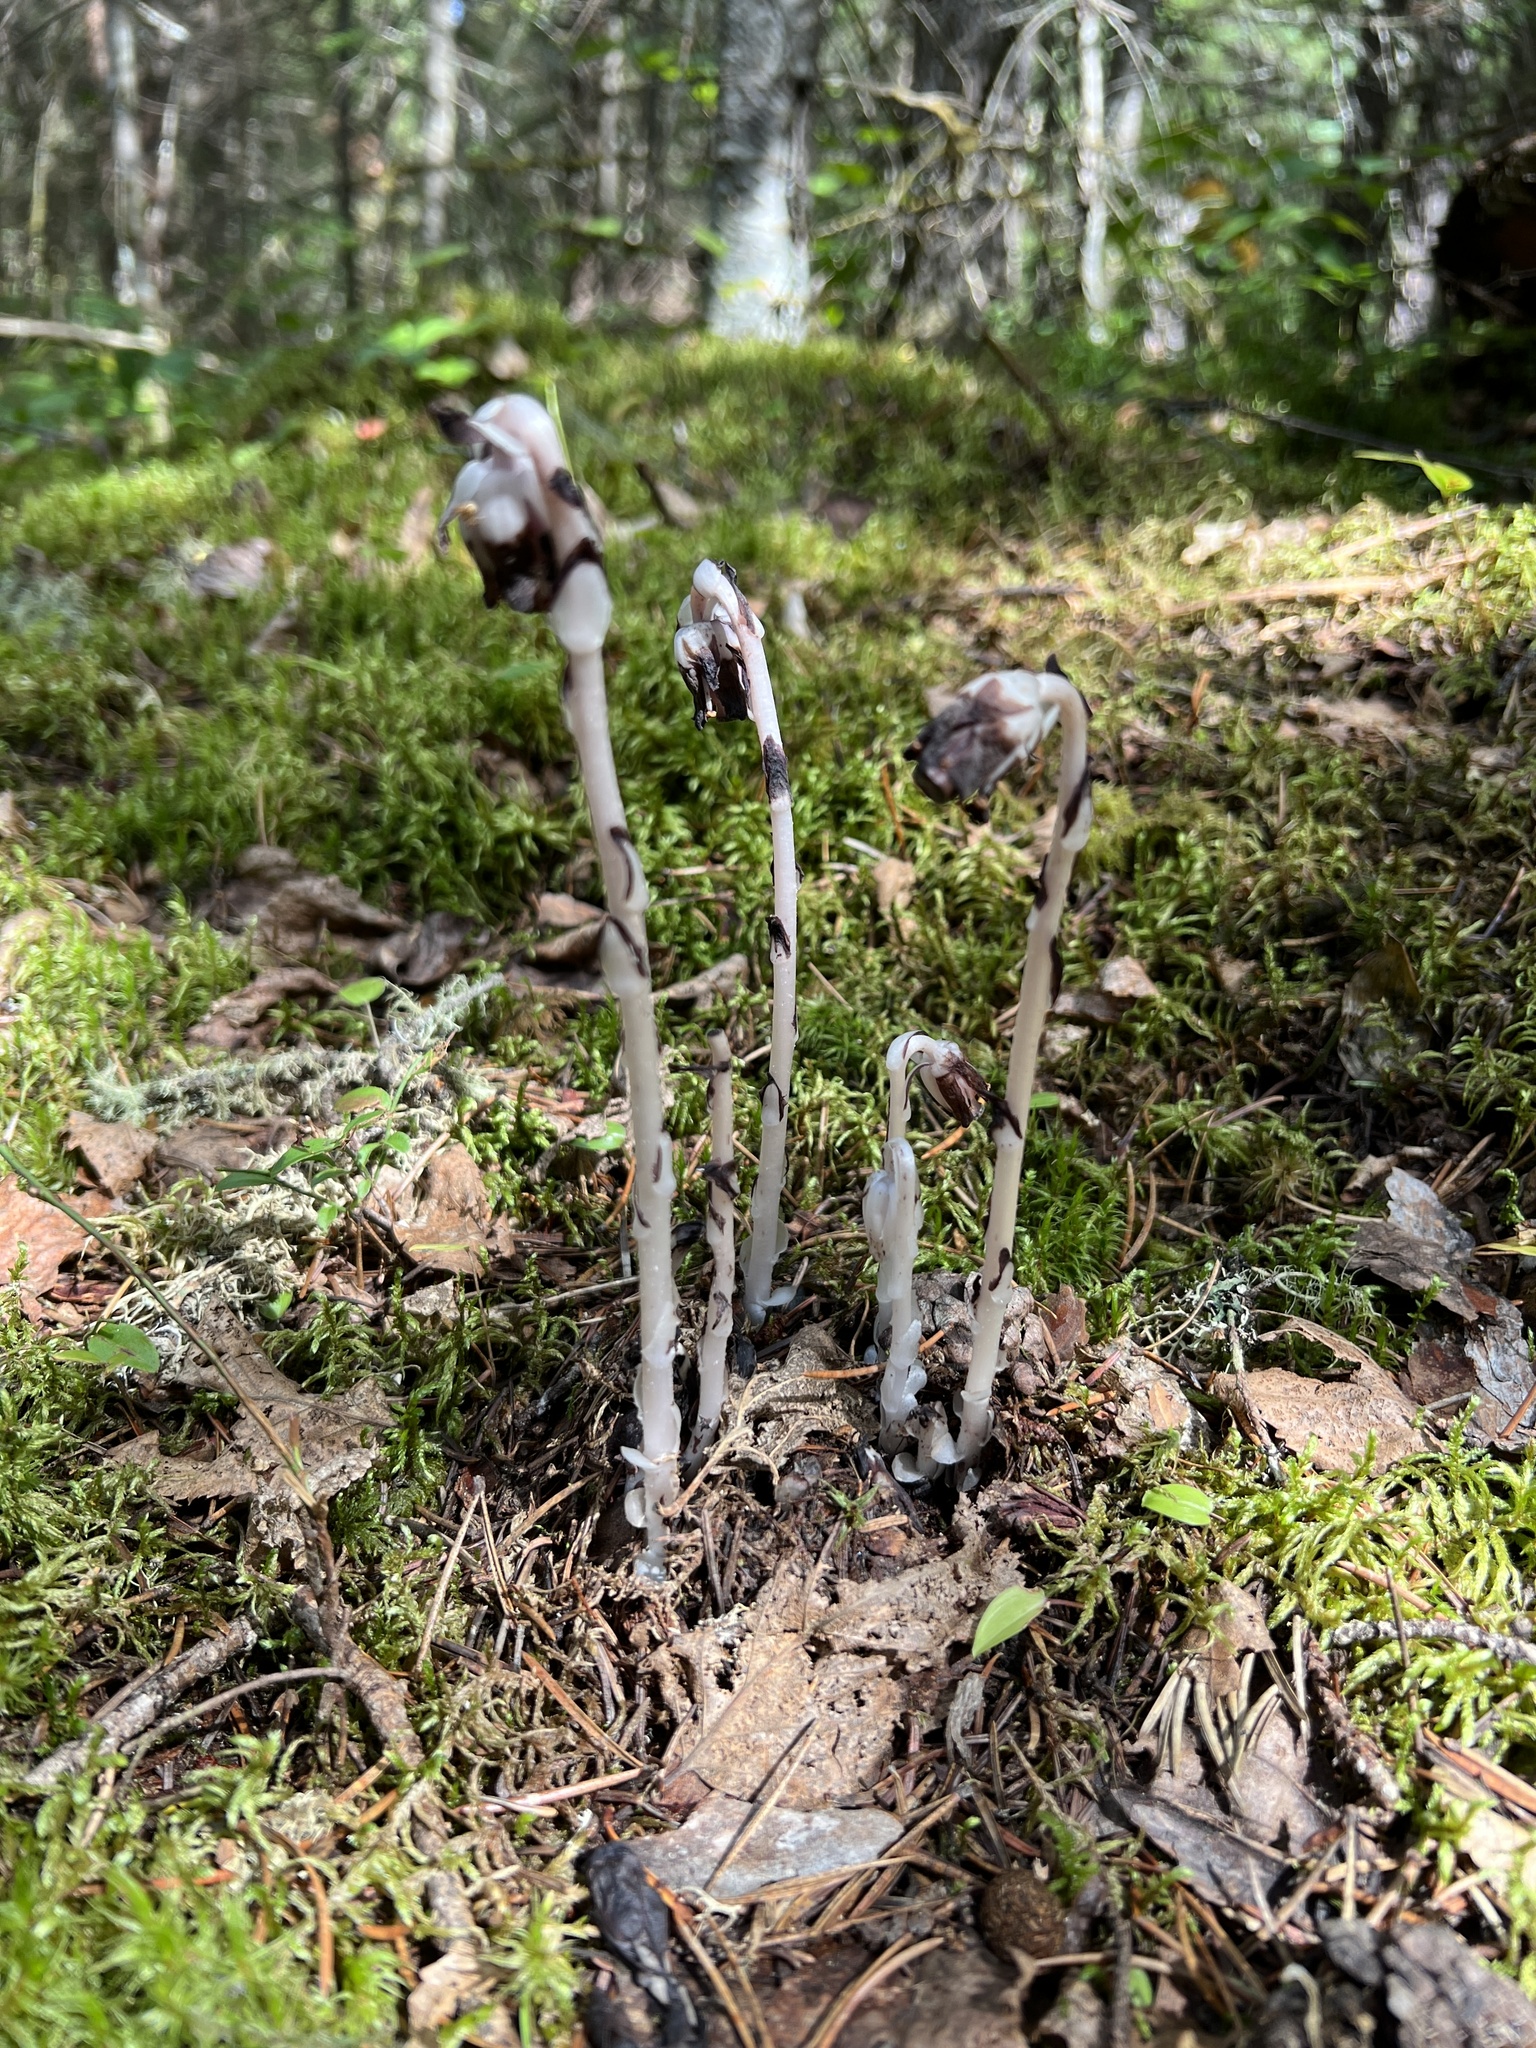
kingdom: Plantae
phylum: Tracheophyta
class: Magnoliopsida
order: Ericales
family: Ericaceae
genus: Monotropa
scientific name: Monotropa uniflora
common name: Convulsion root
